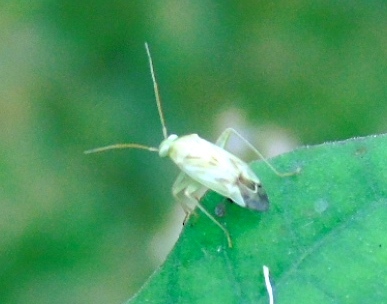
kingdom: Animalia
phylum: Arthropoda
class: Insecta
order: Hemiptera
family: Miridae
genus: Taylorilygus
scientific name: Taylorilygus apicalis
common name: Plant bug
